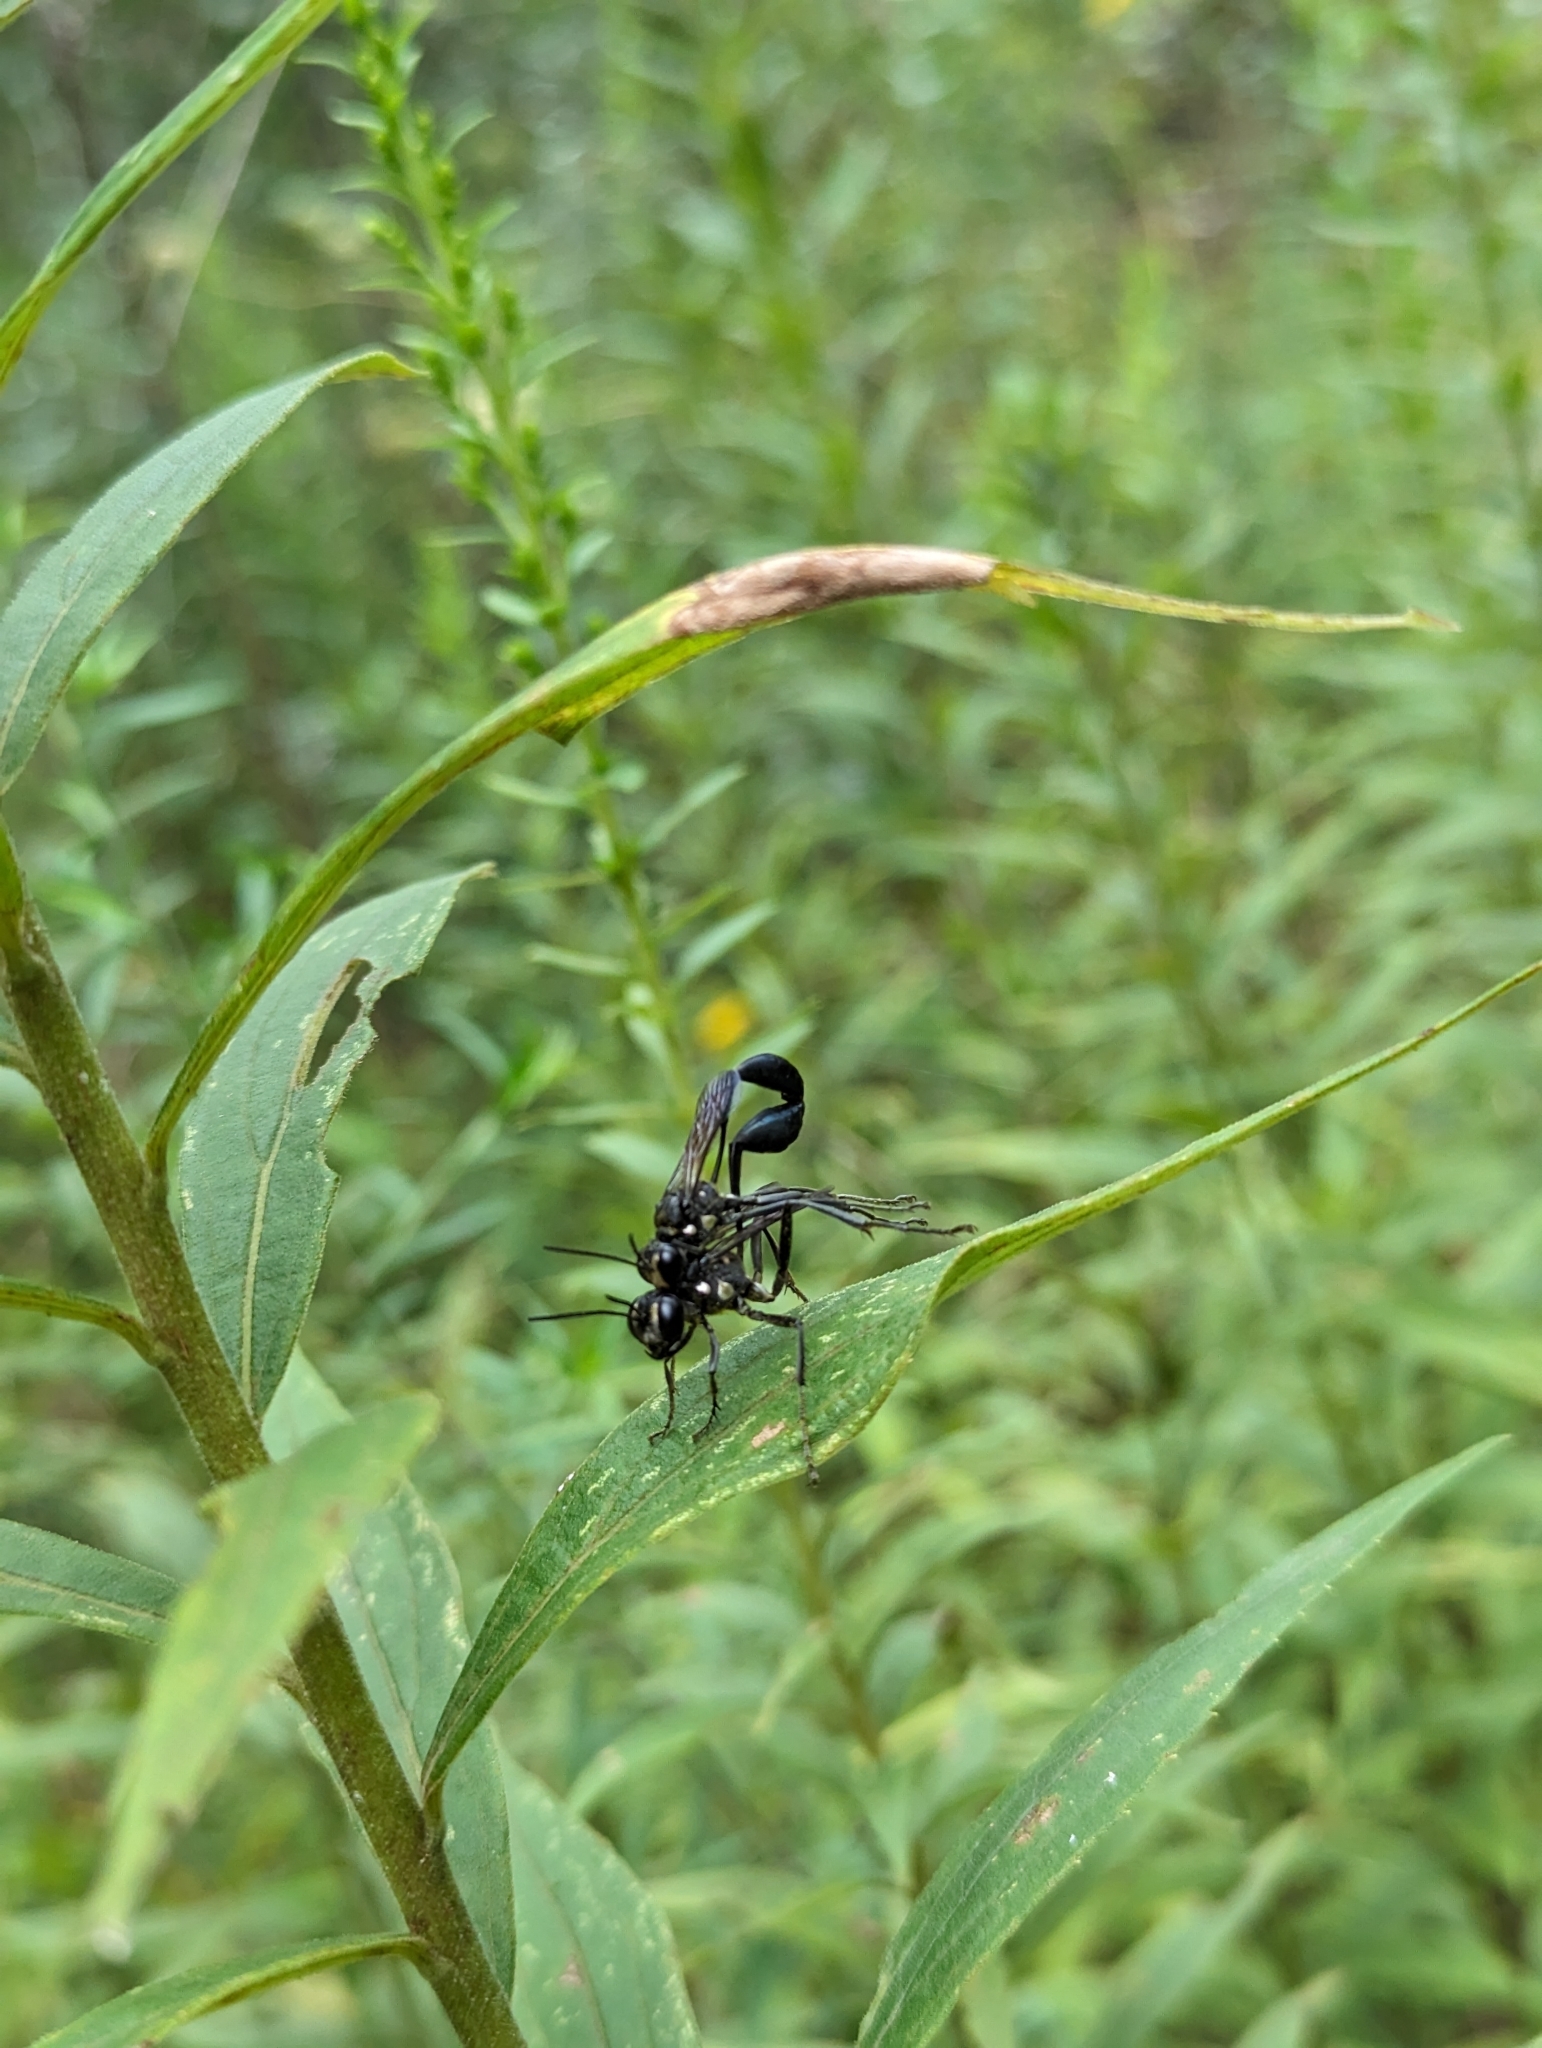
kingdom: Animalia
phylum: Arthropoda
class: Insecta
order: Hymenoptera
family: Sphecidae
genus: Eremnophila
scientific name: Eremnophila aureonotata
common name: Gold-marked thread-waisted wasp
